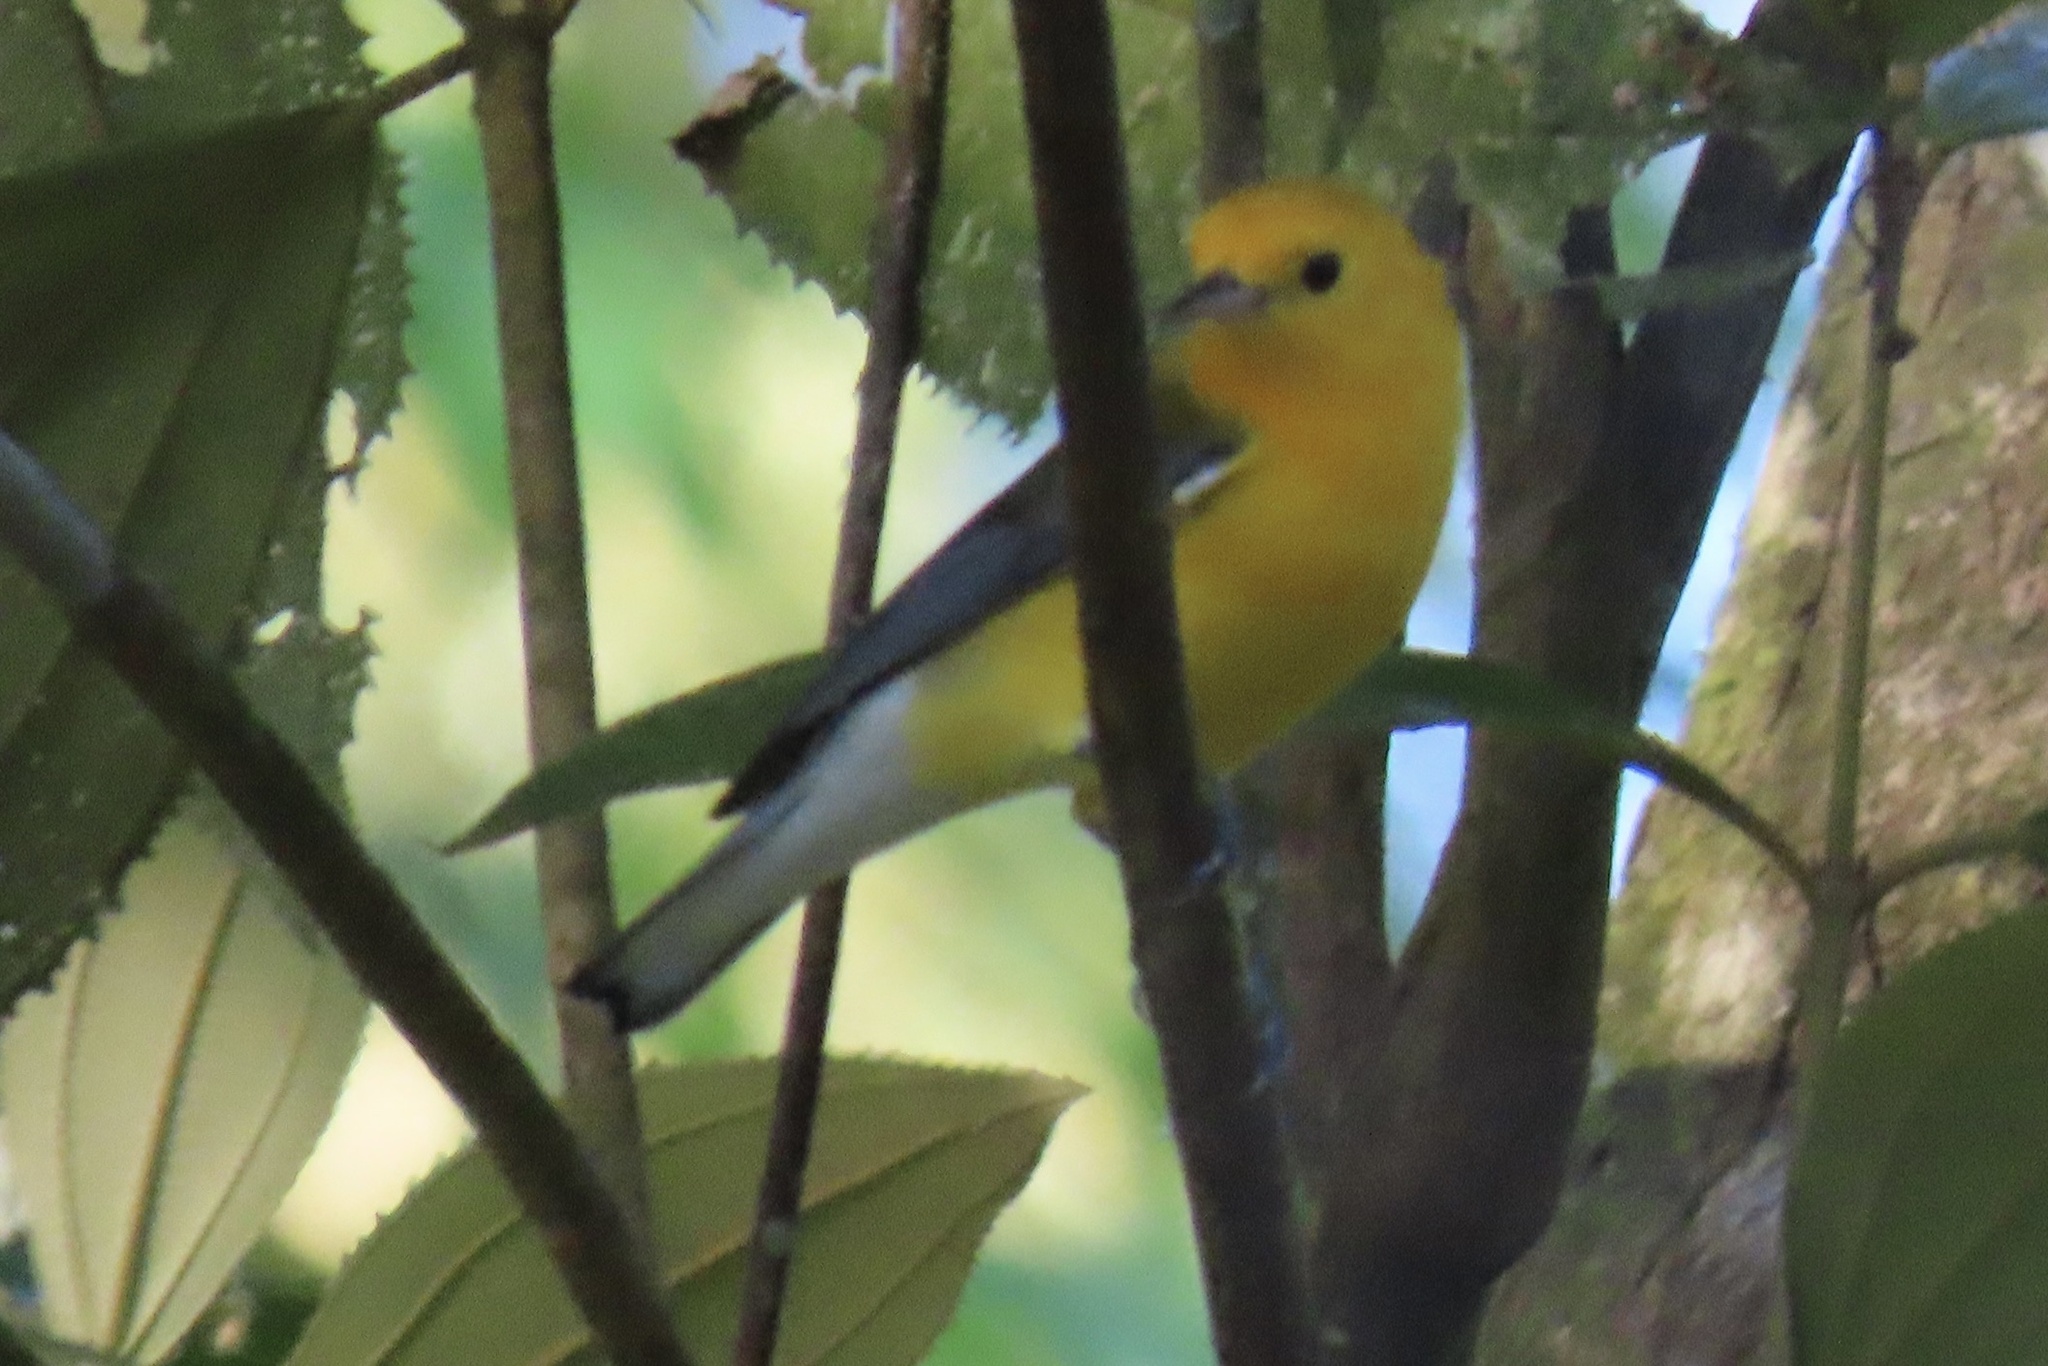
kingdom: Animalia
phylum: Chordata
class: Aves
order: Passeriformes
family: Parulidae
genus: Protonotaria
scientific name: Protonotaria citrea
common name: Prothonotary warbler
